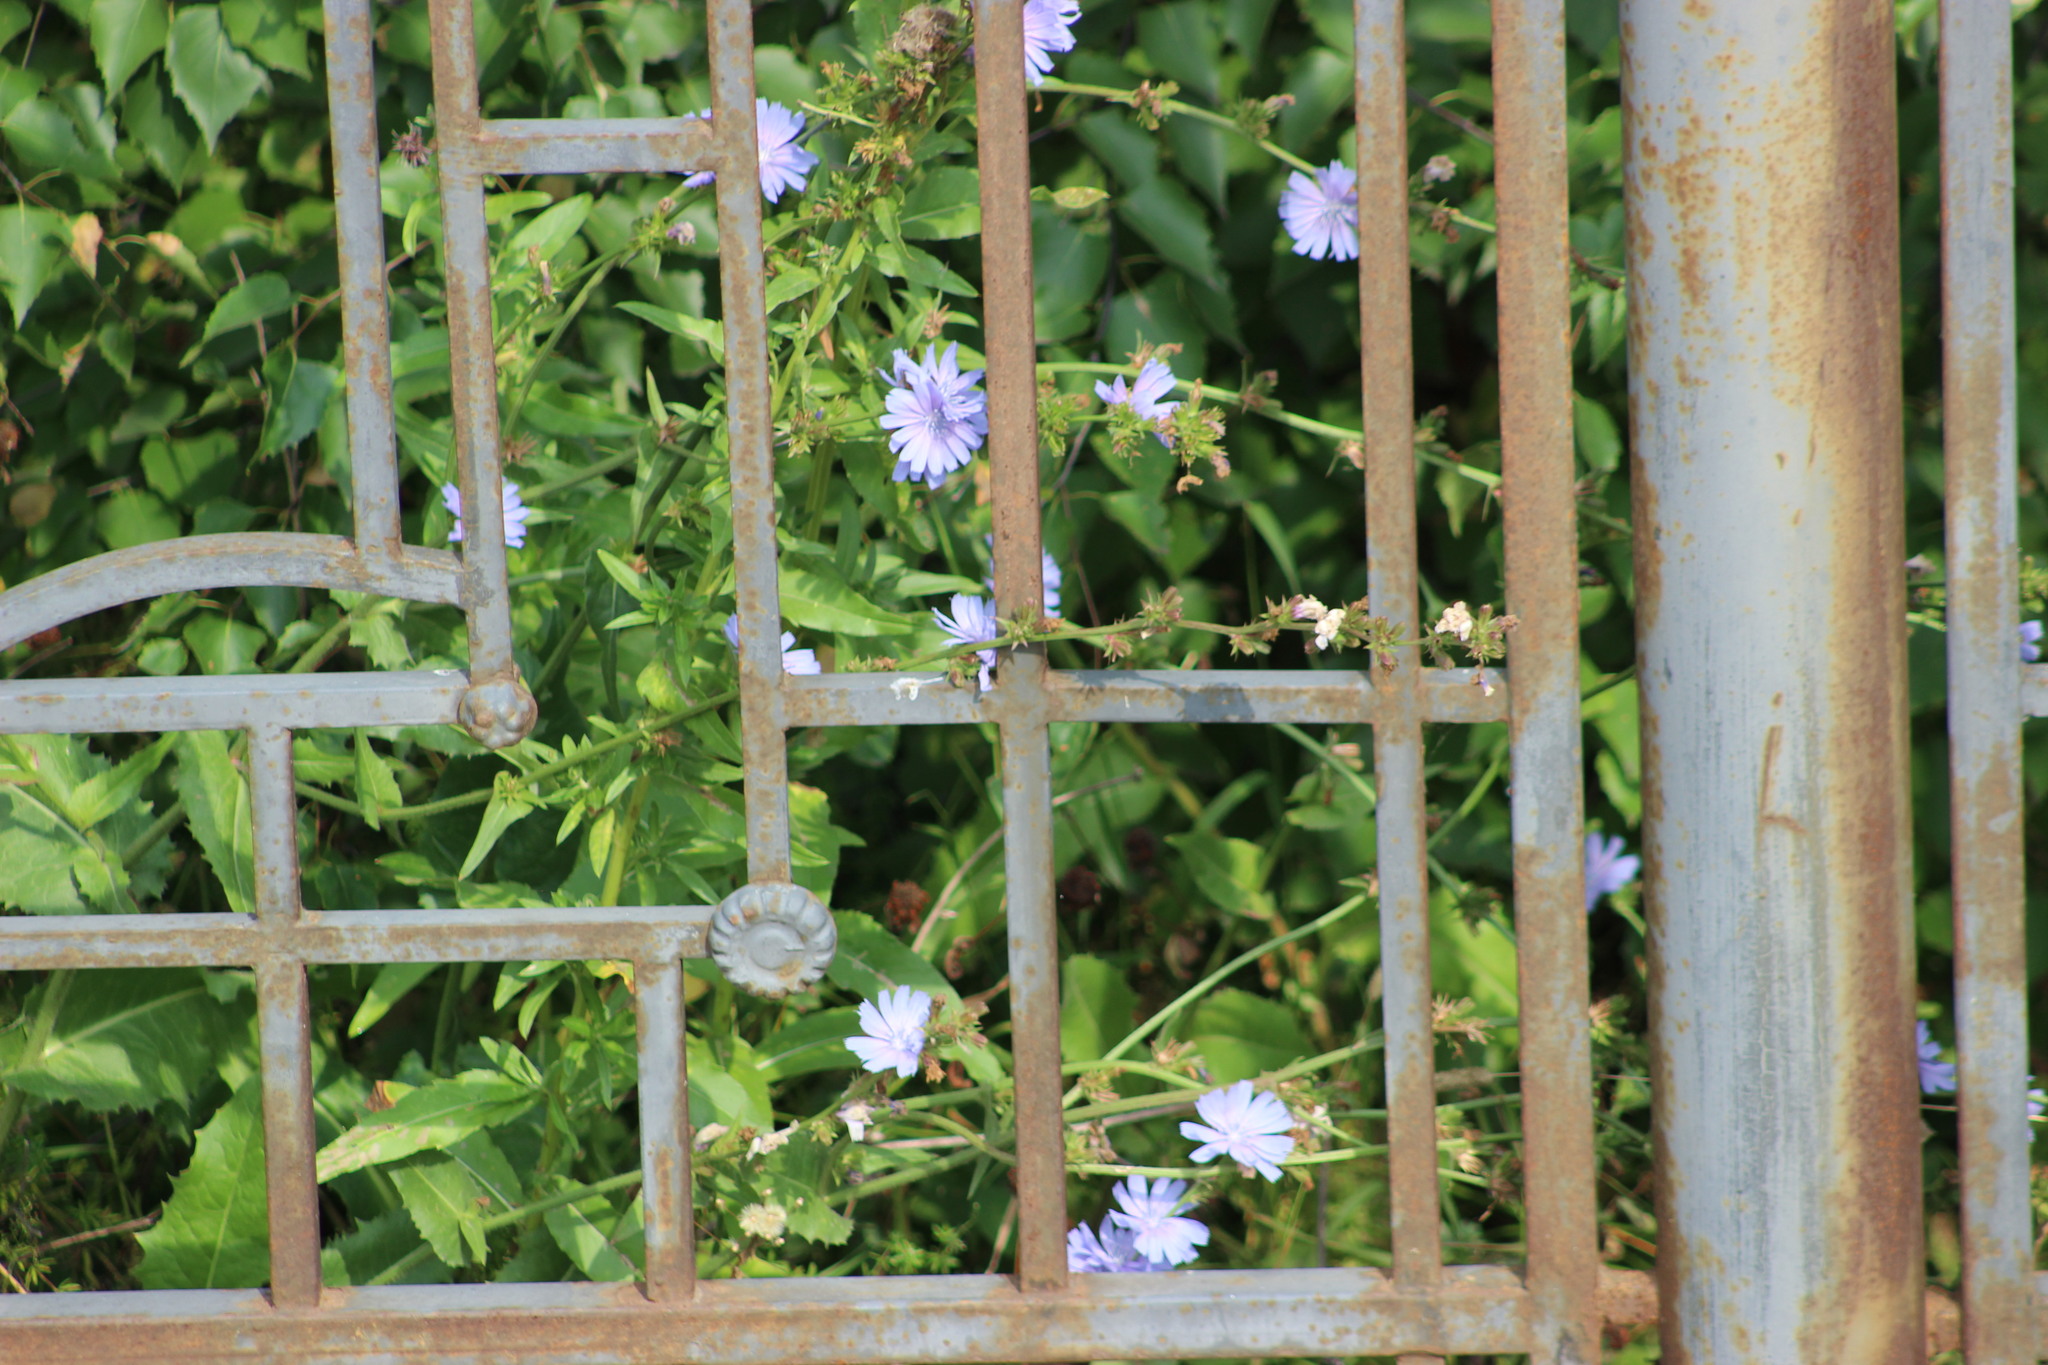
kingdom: Plantae
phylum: Tracheophyta
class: Magnoliopsida
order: Asterales
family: Asteraceae
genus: Cichorium
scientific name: Cichorium intybus
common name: Chicory
